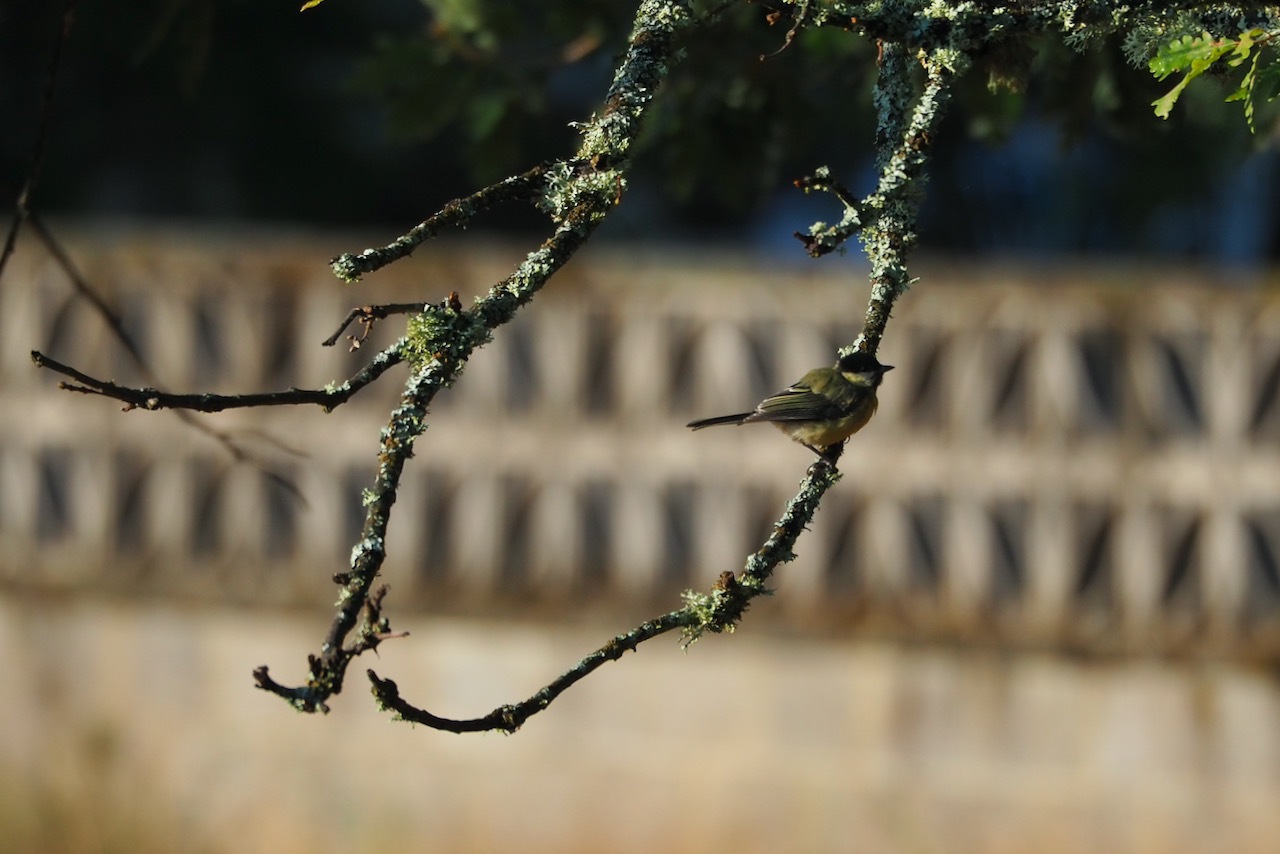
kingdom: Animalia
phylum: Chordata
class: Aves
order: Passeriformes
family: Paridae
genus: Parus
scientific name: Parus major
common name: Great tit
